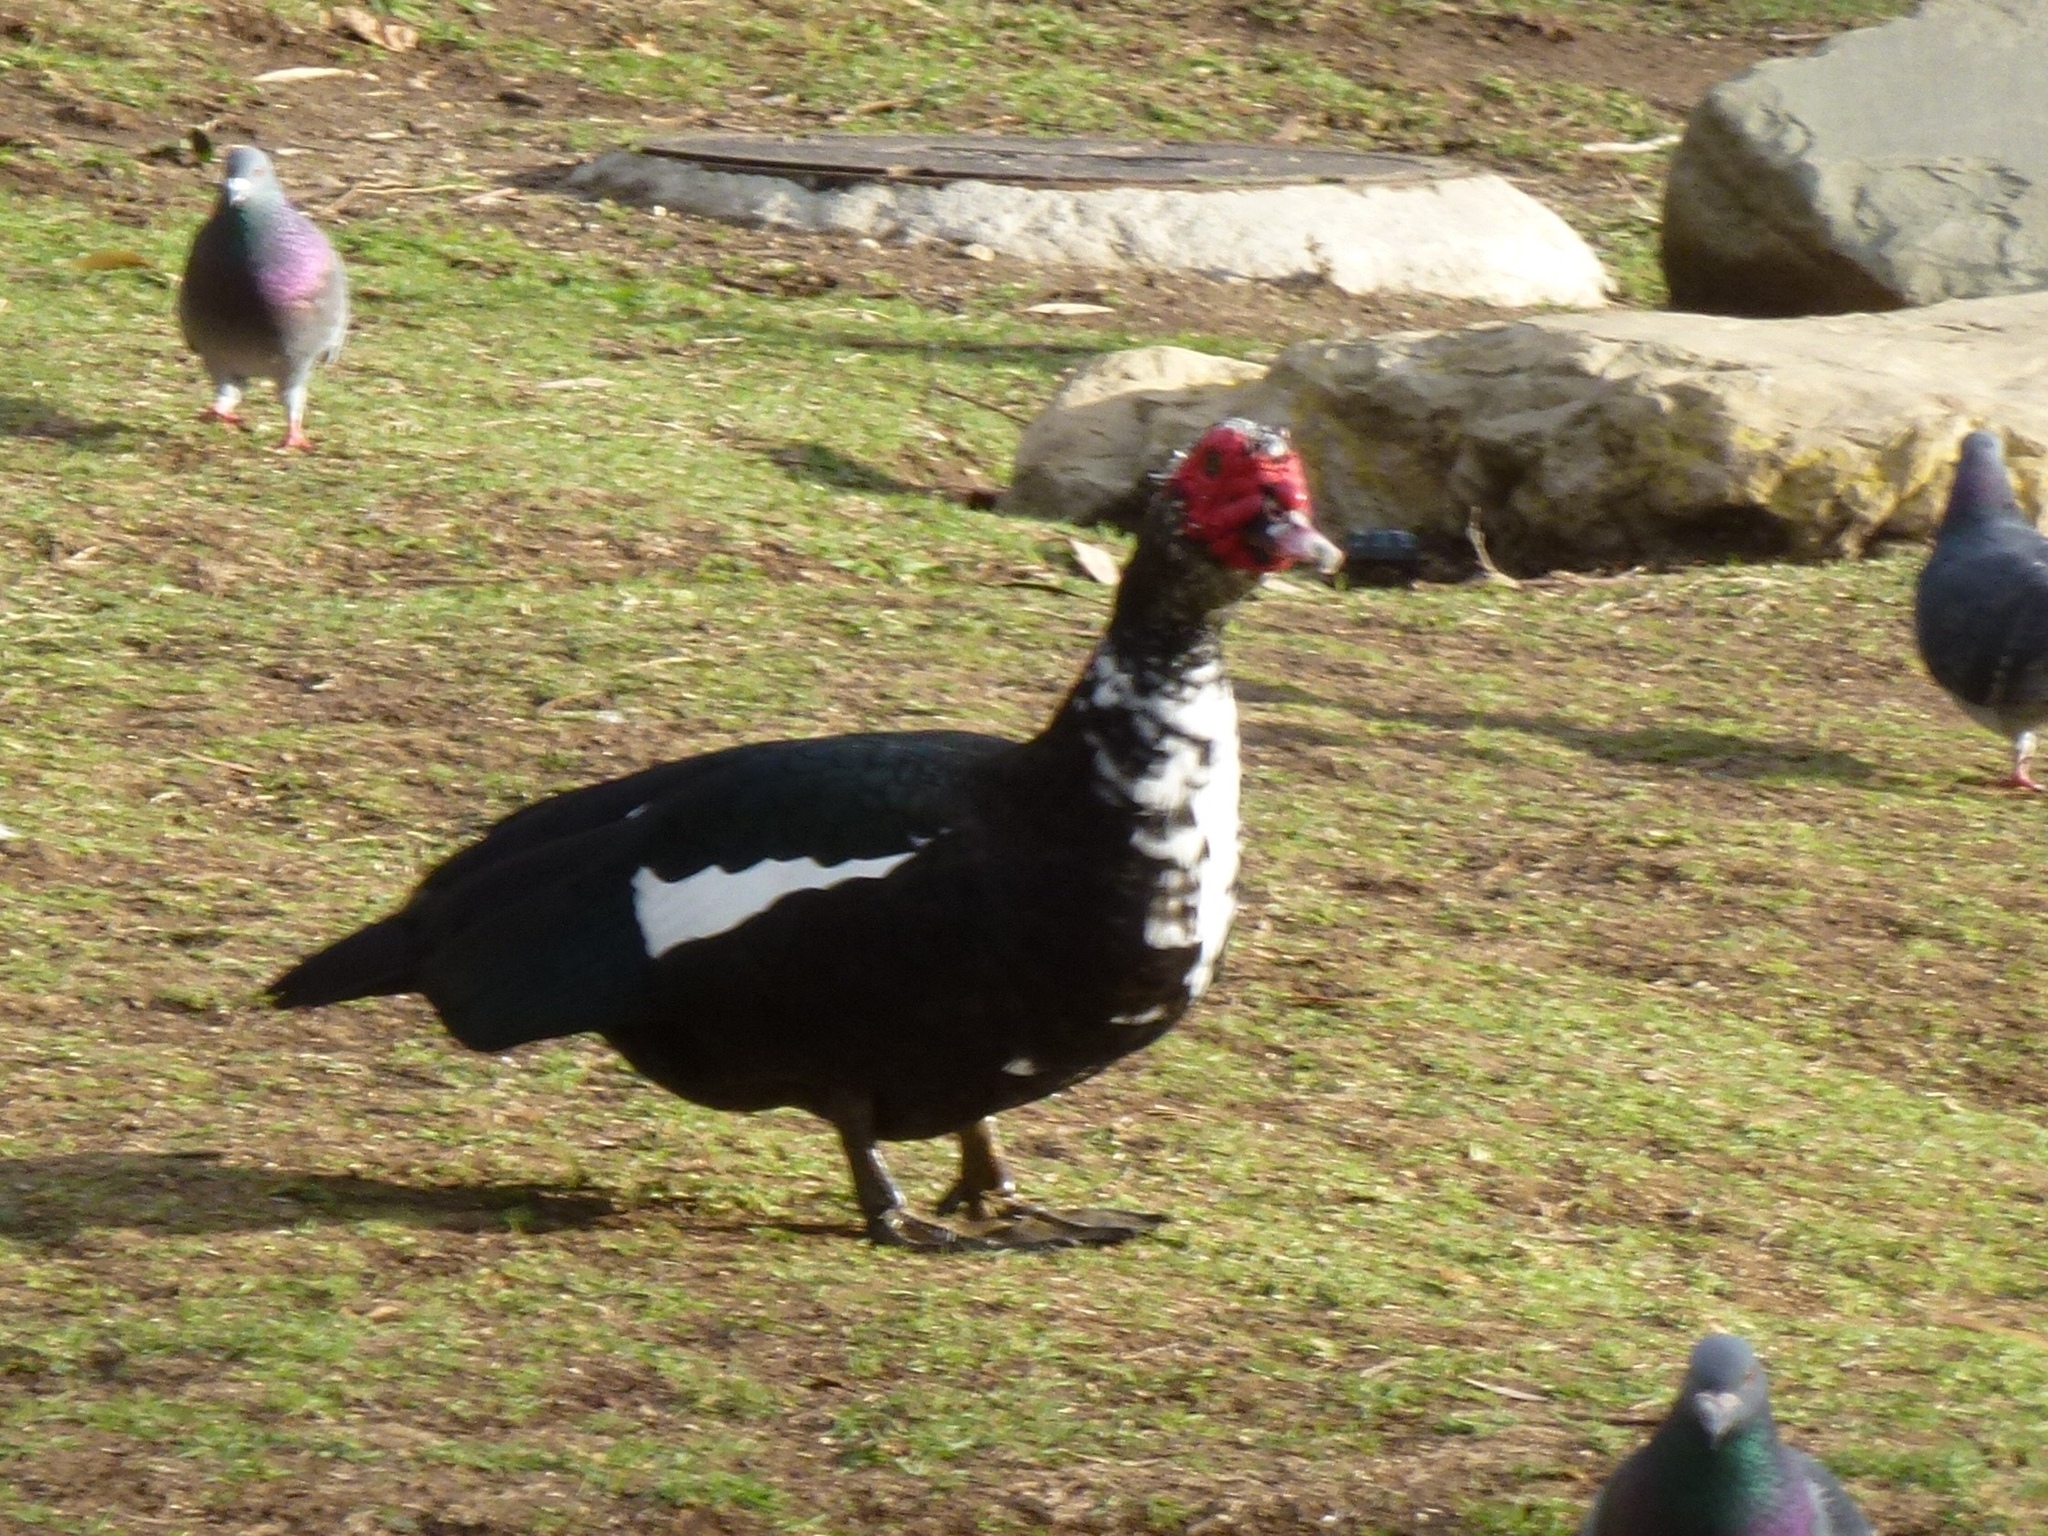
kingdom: Animalia
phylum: Chordata
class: Aves
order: Anseriformes
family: Anatidae
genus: Cairina
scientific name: Cairina moschata
